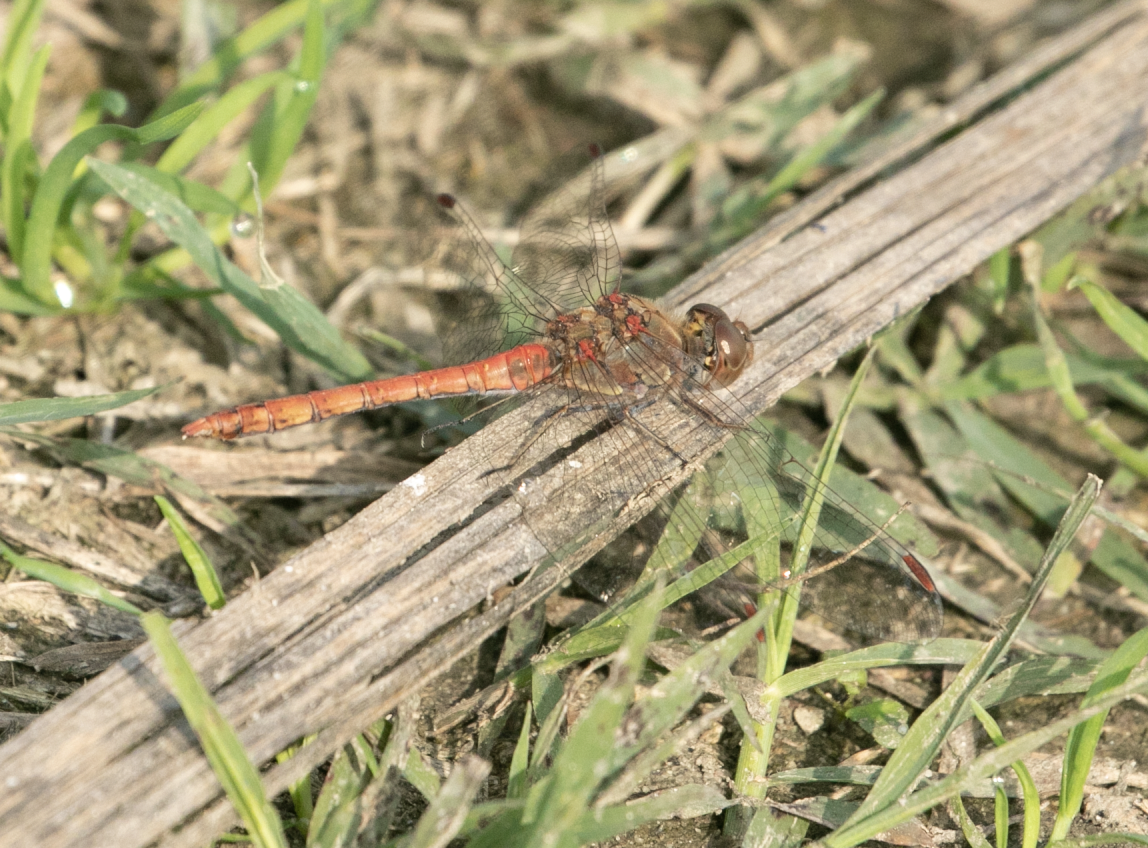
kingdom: Animalia
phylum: Arthropoda
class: Insecta
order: Odonata
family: Libellulidae
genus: Sympetrum
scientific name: Sympetrum striolatum
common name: Common darter
